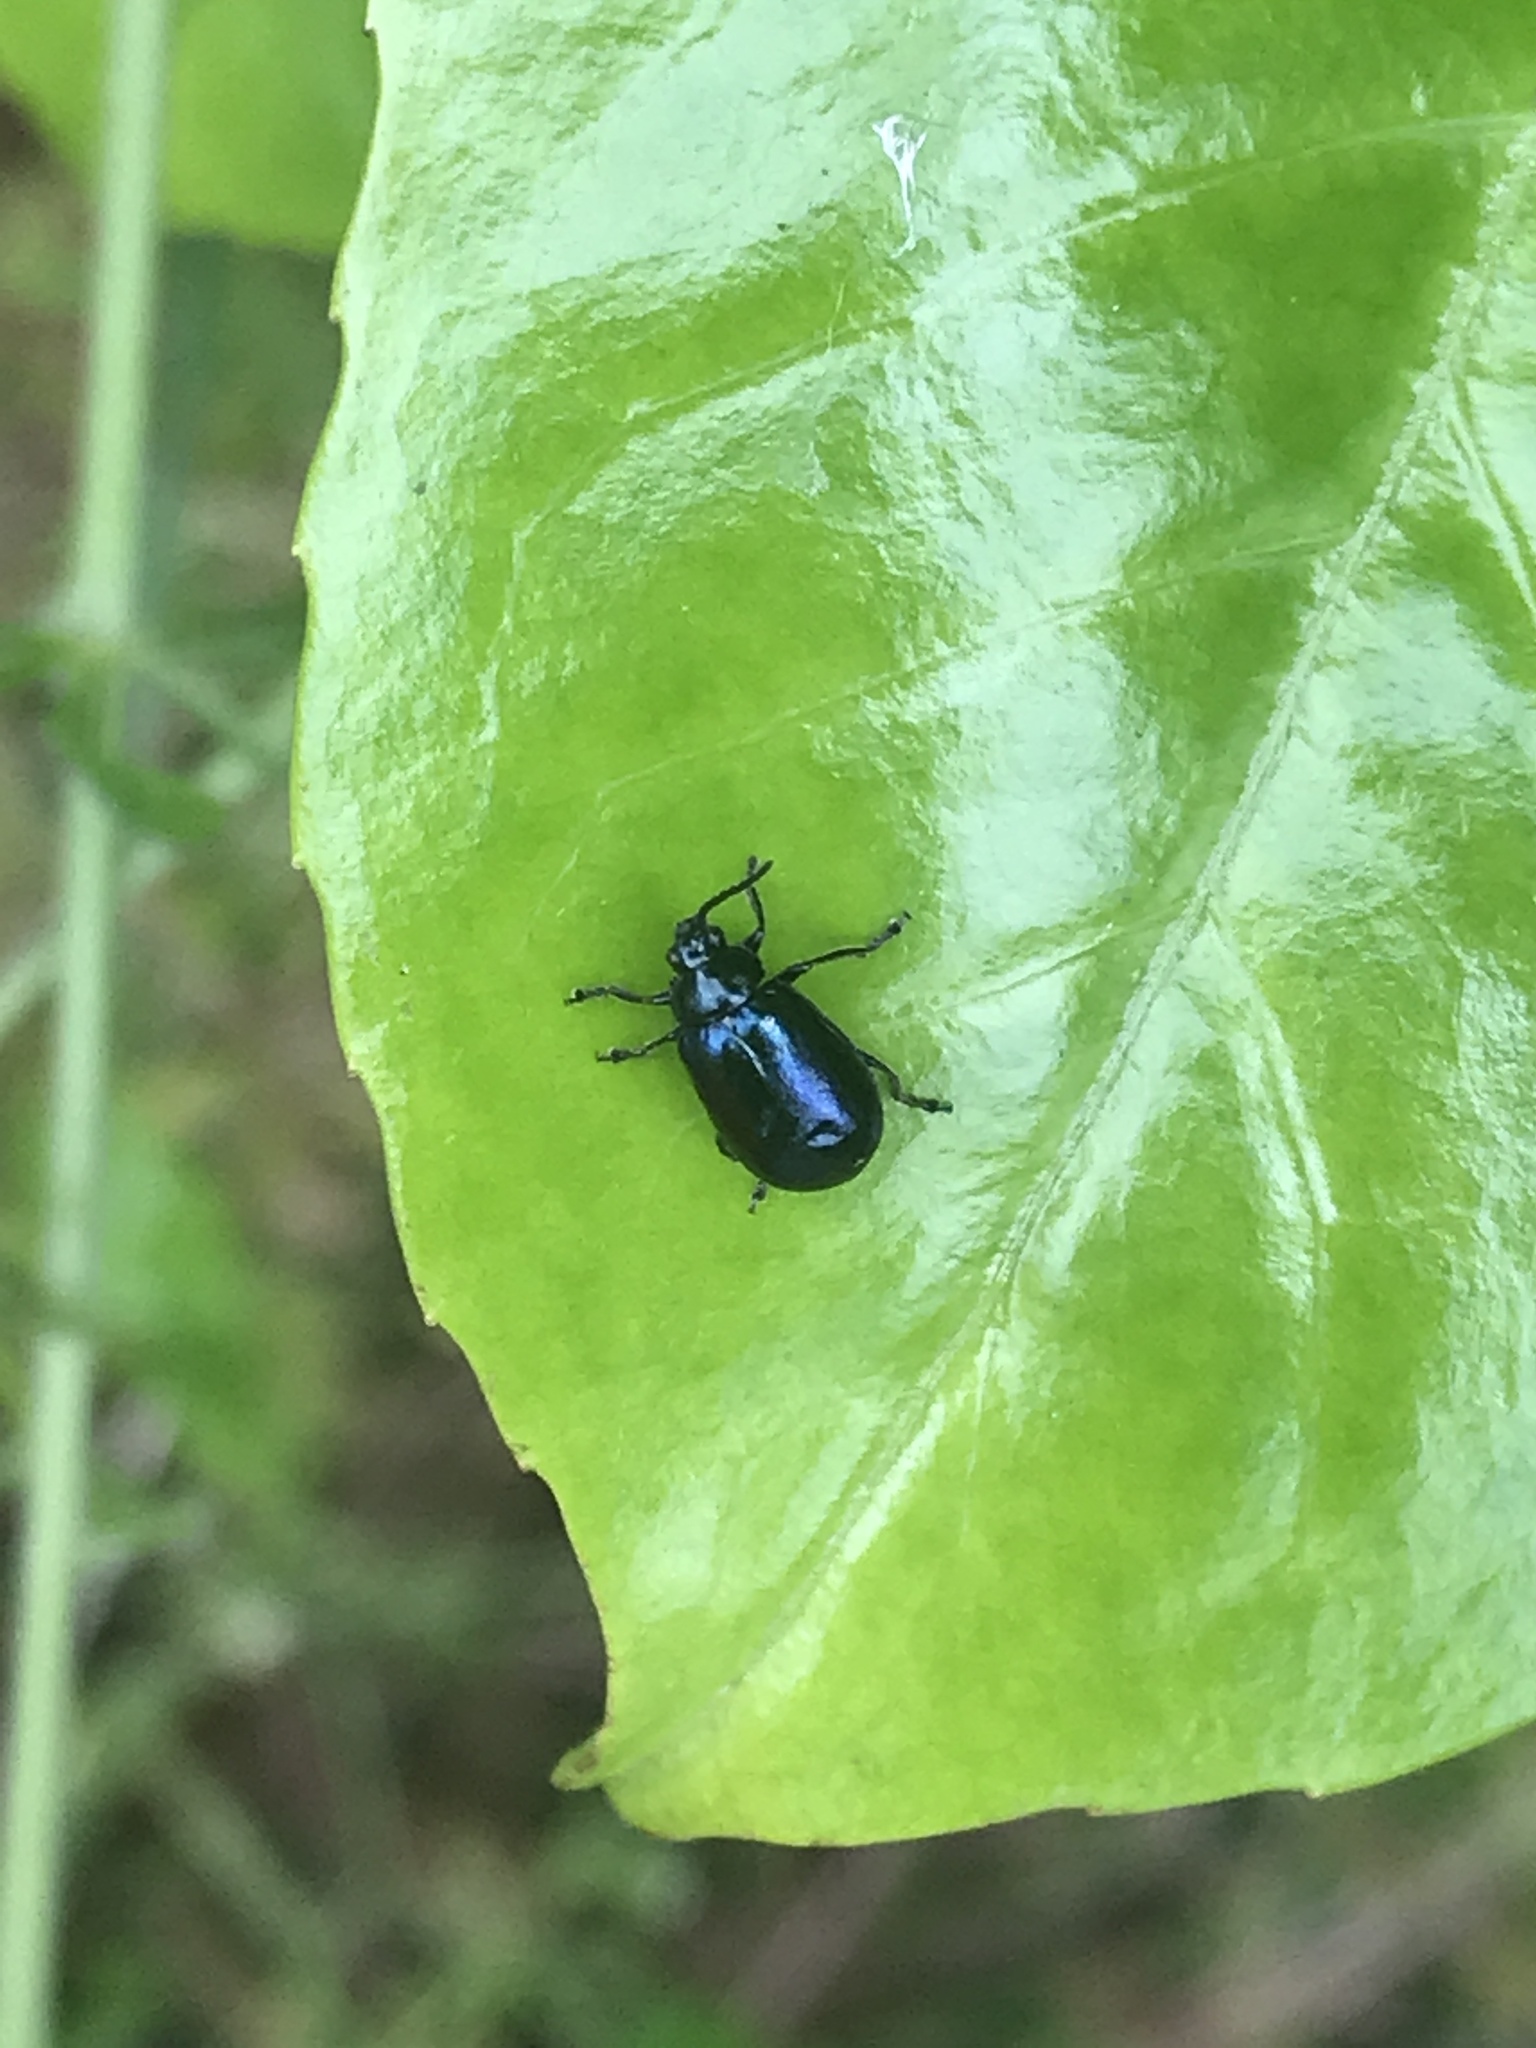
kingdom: Animalia
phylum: Arthropoda
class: Insecta
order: Coleoptera
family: Chrysomelidae
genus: Agelastica
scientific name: Agelastica alni
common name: Alder leaf beetle
